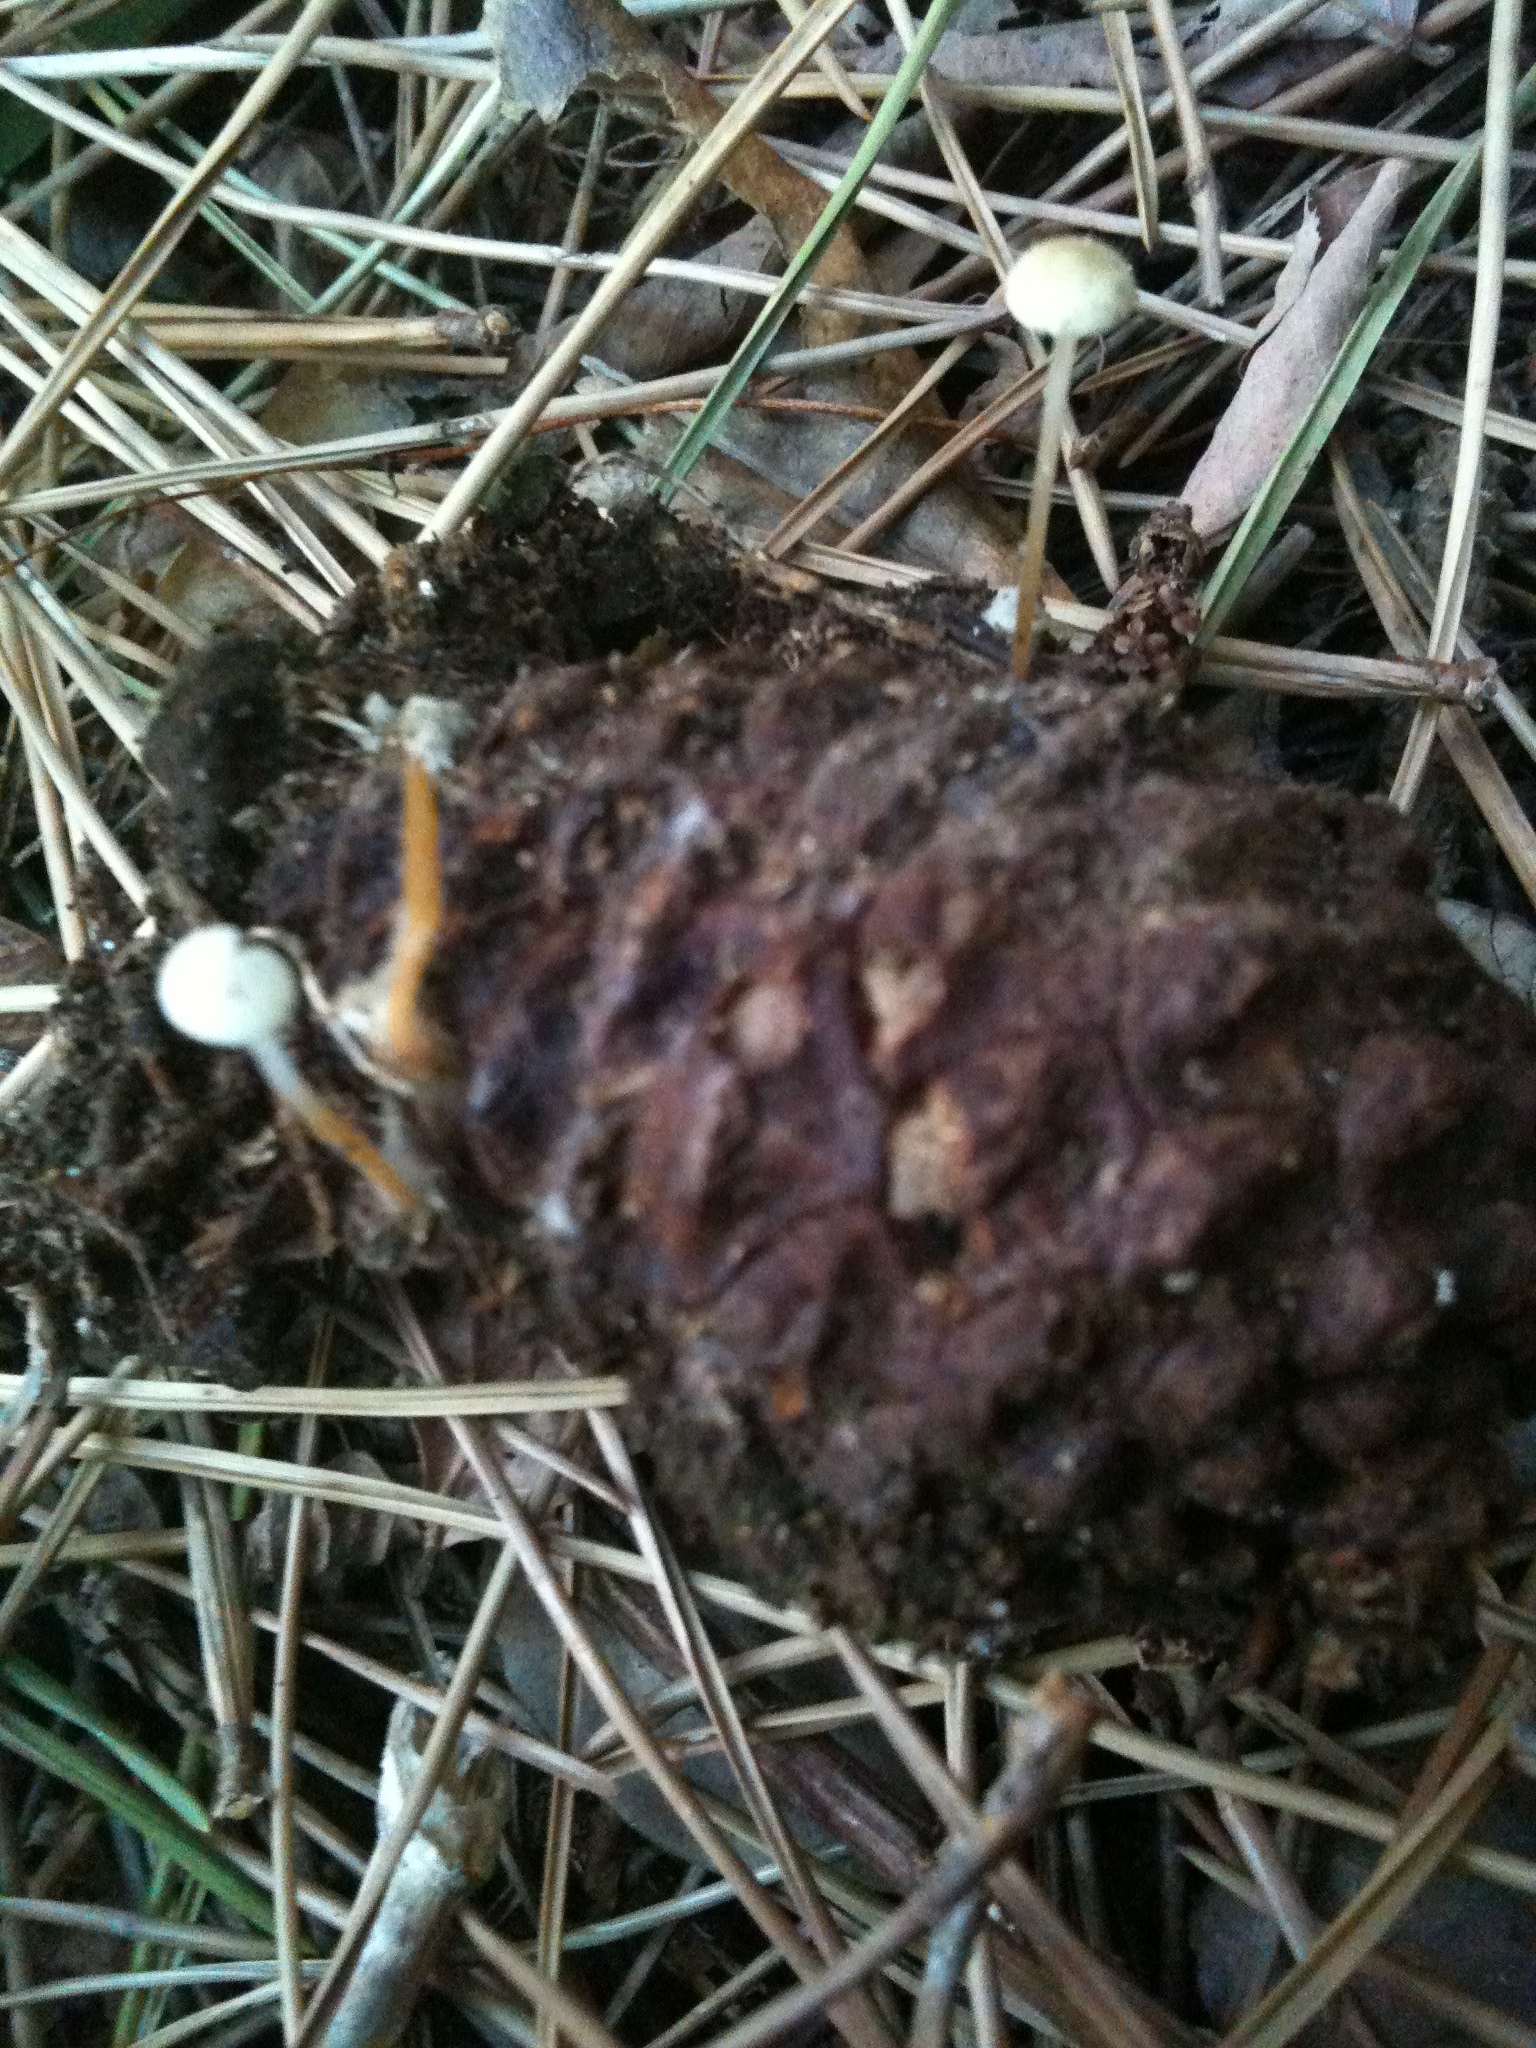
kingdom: Fungi
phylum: Basidiomycota
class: Agaricomycetes
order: Agaricales
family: Physalacriaceae
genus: Strobilurus
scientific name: Strobilurus stephanocystis
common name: Russian conecap
